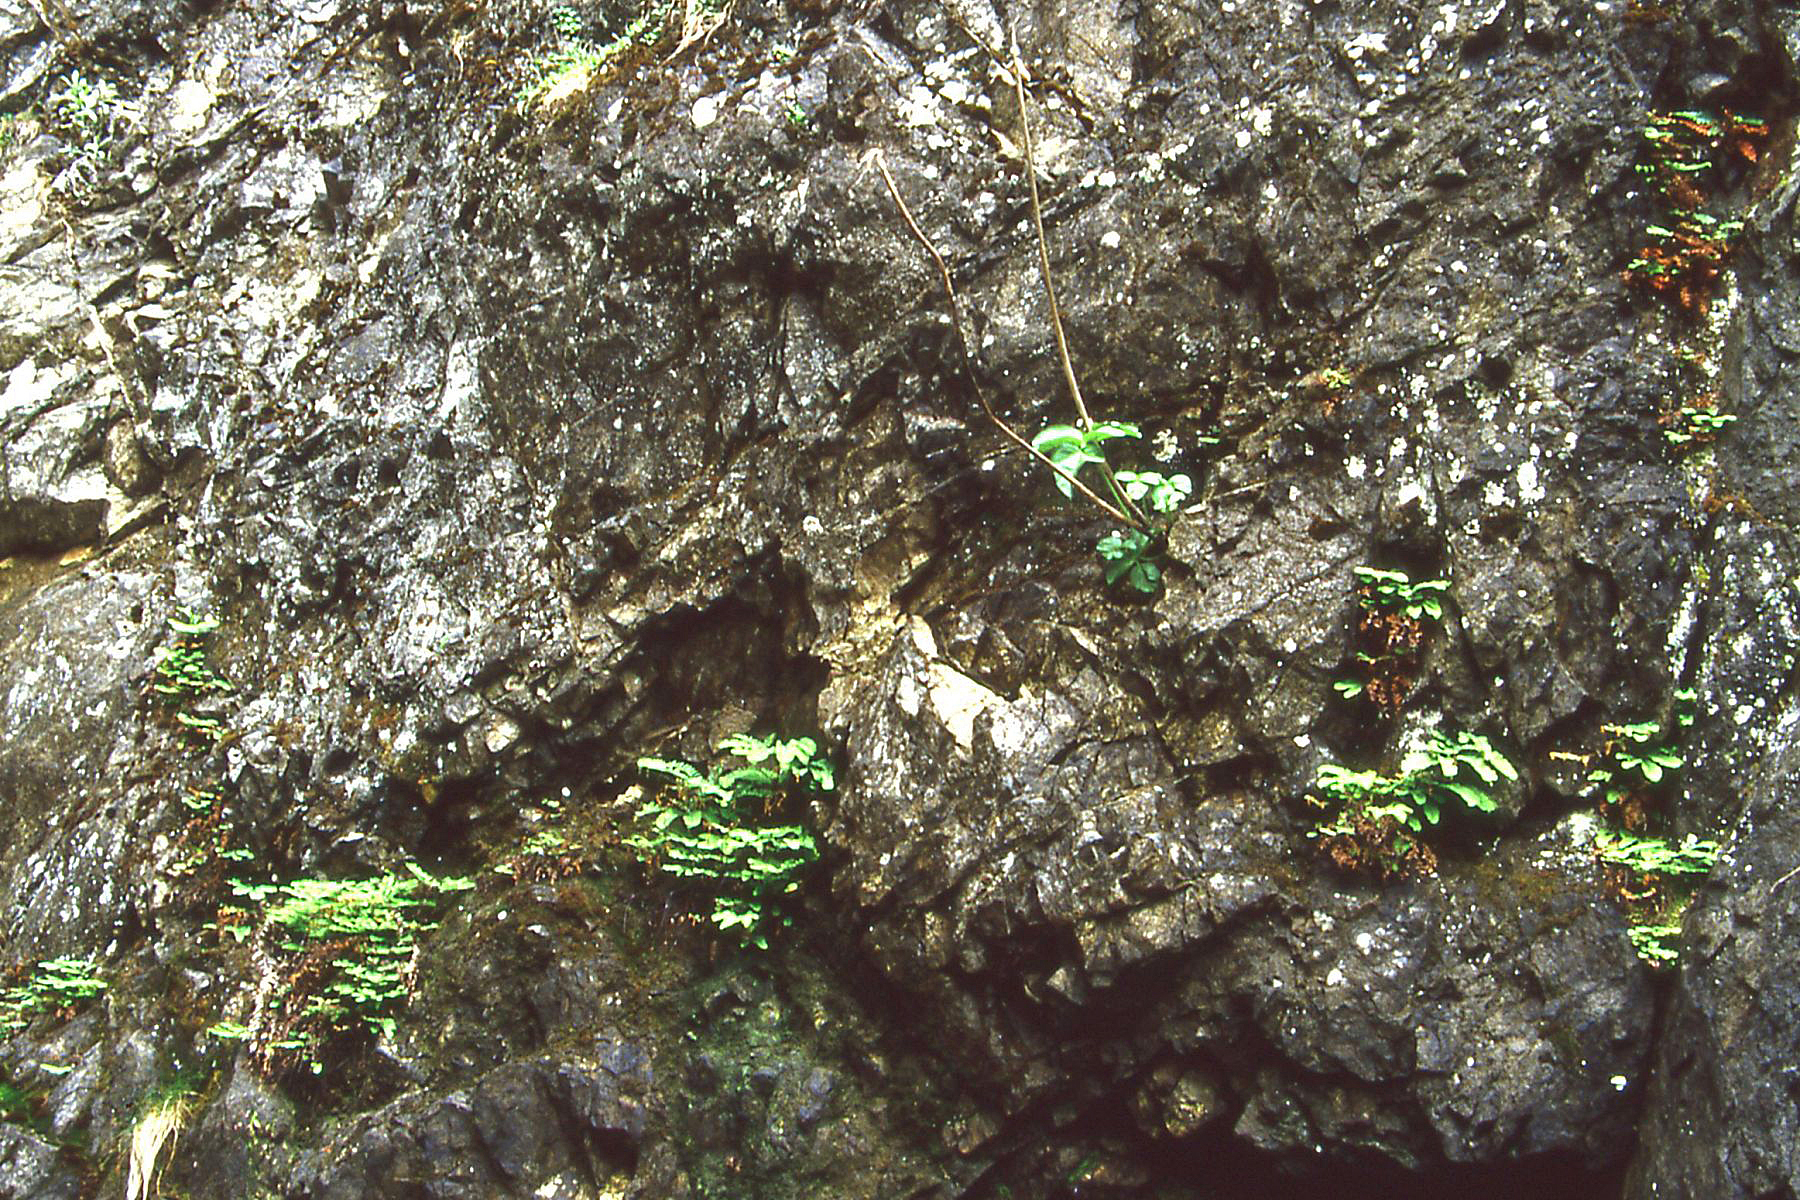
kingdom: Plantae
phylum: Tracheophyta
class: Polypodiopsida
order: Polypodiales
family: Pteridaceae
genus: Adiantum
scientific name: Adiantum aleuticum
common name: Aleutian maidenhair fern
